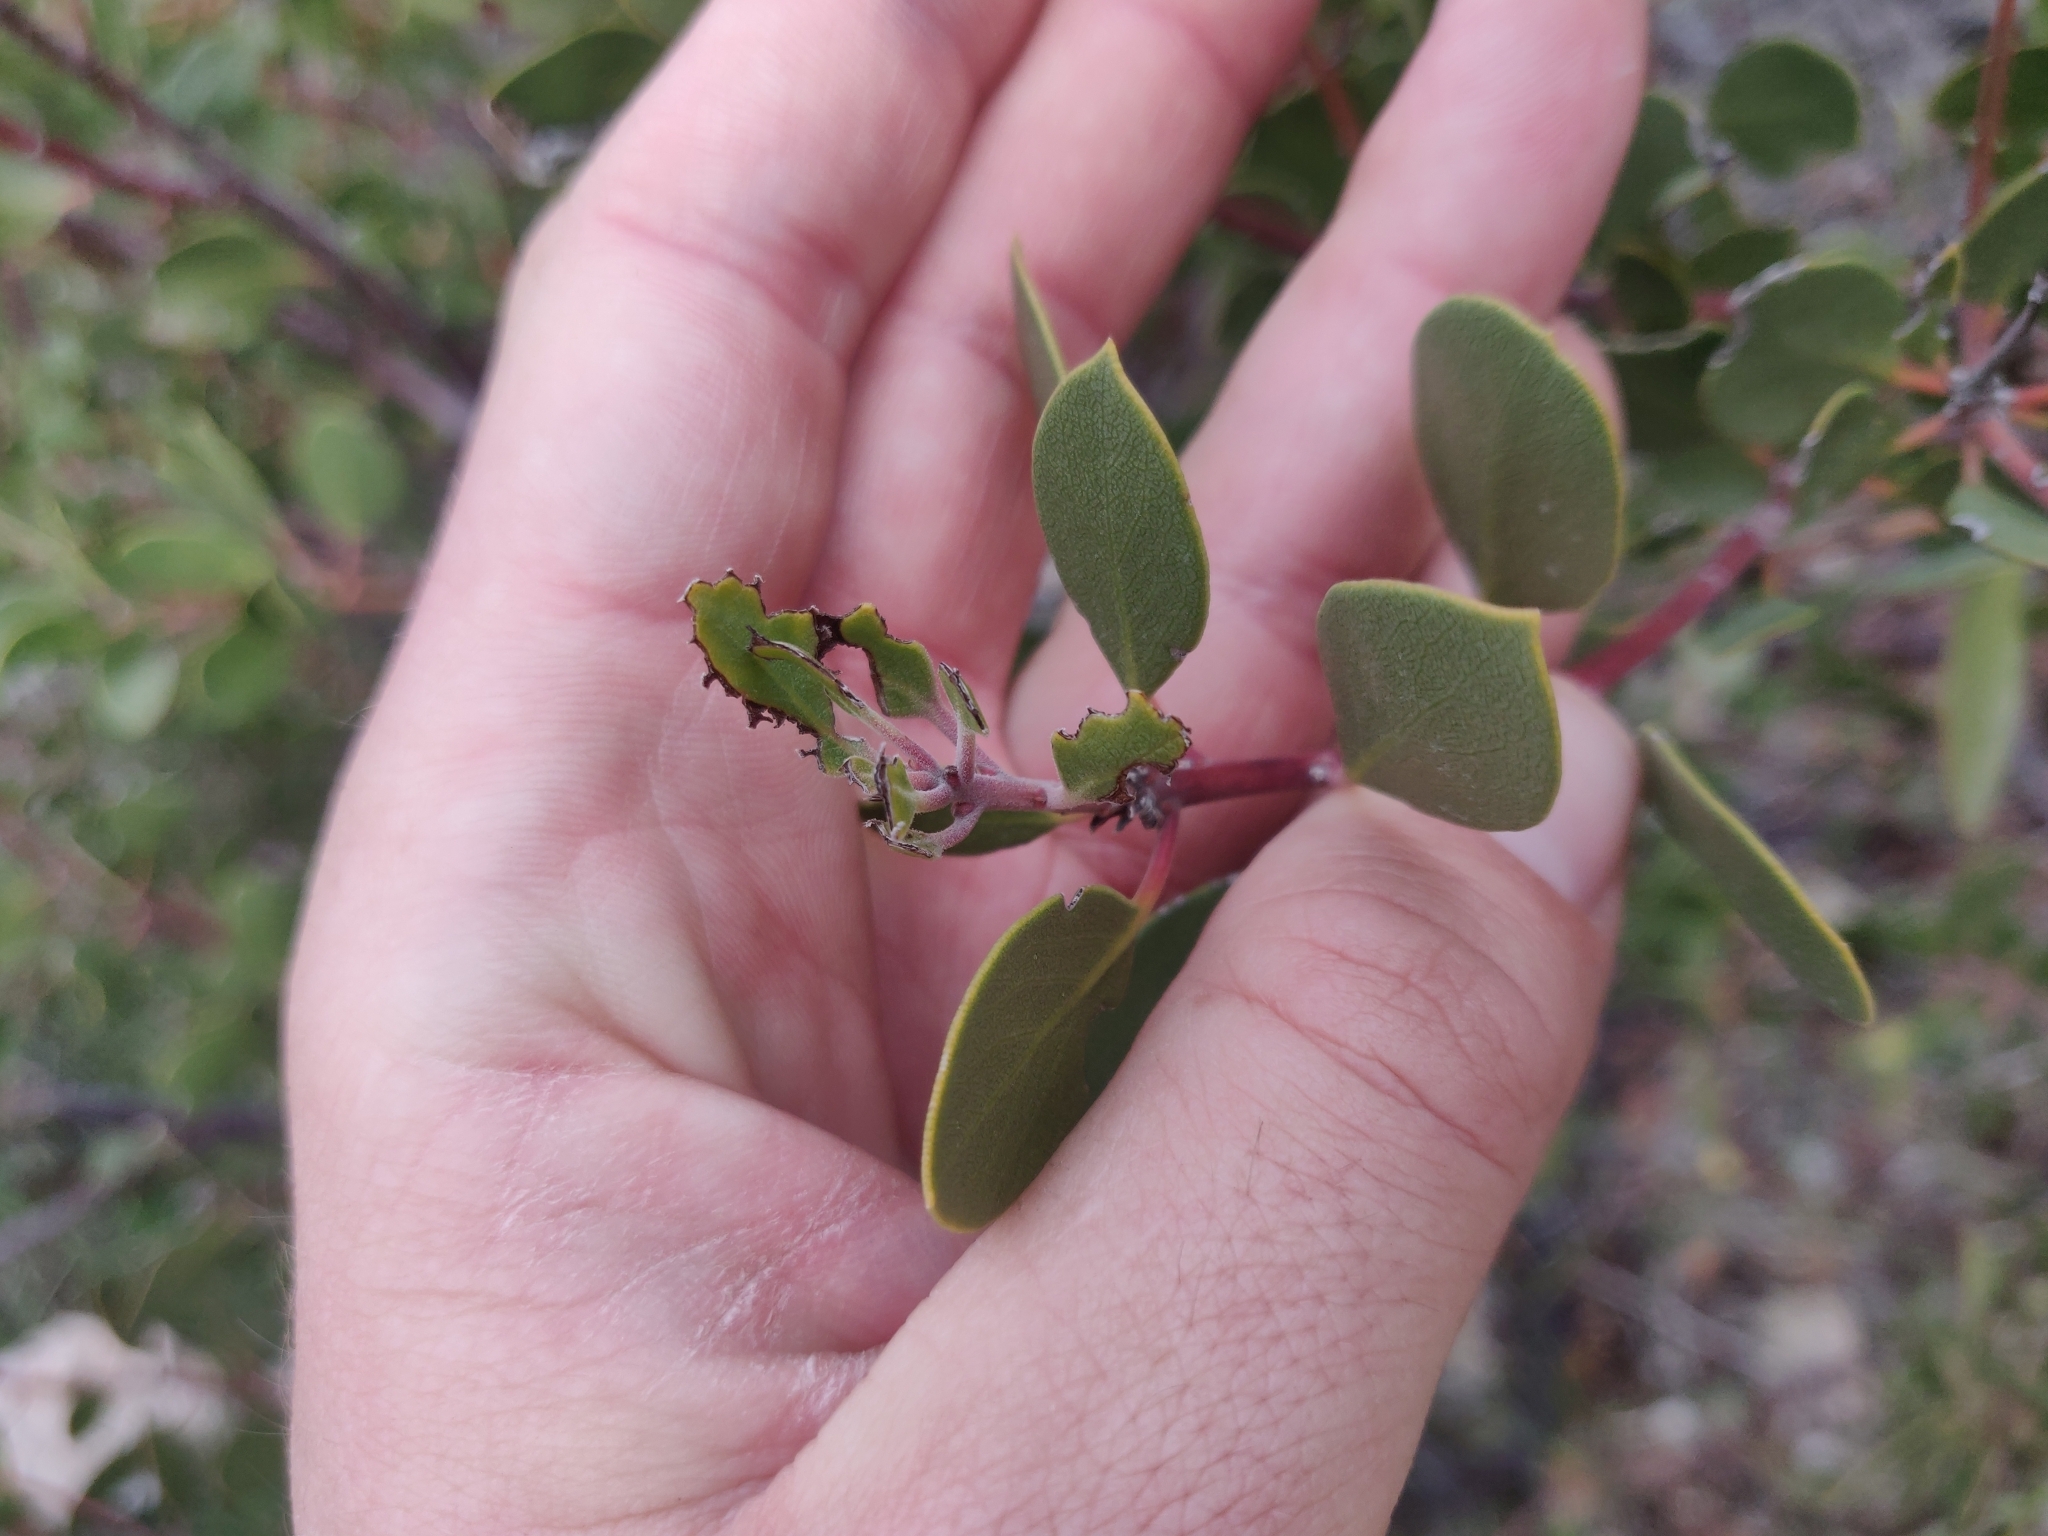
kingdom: Plantae
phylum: Tracheophyta
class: Magnoliopsida
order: Ericales
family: Ericaceae
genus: Arctostaphylos
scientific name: Arctostaphylos pungens
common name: Mexican manzanita
